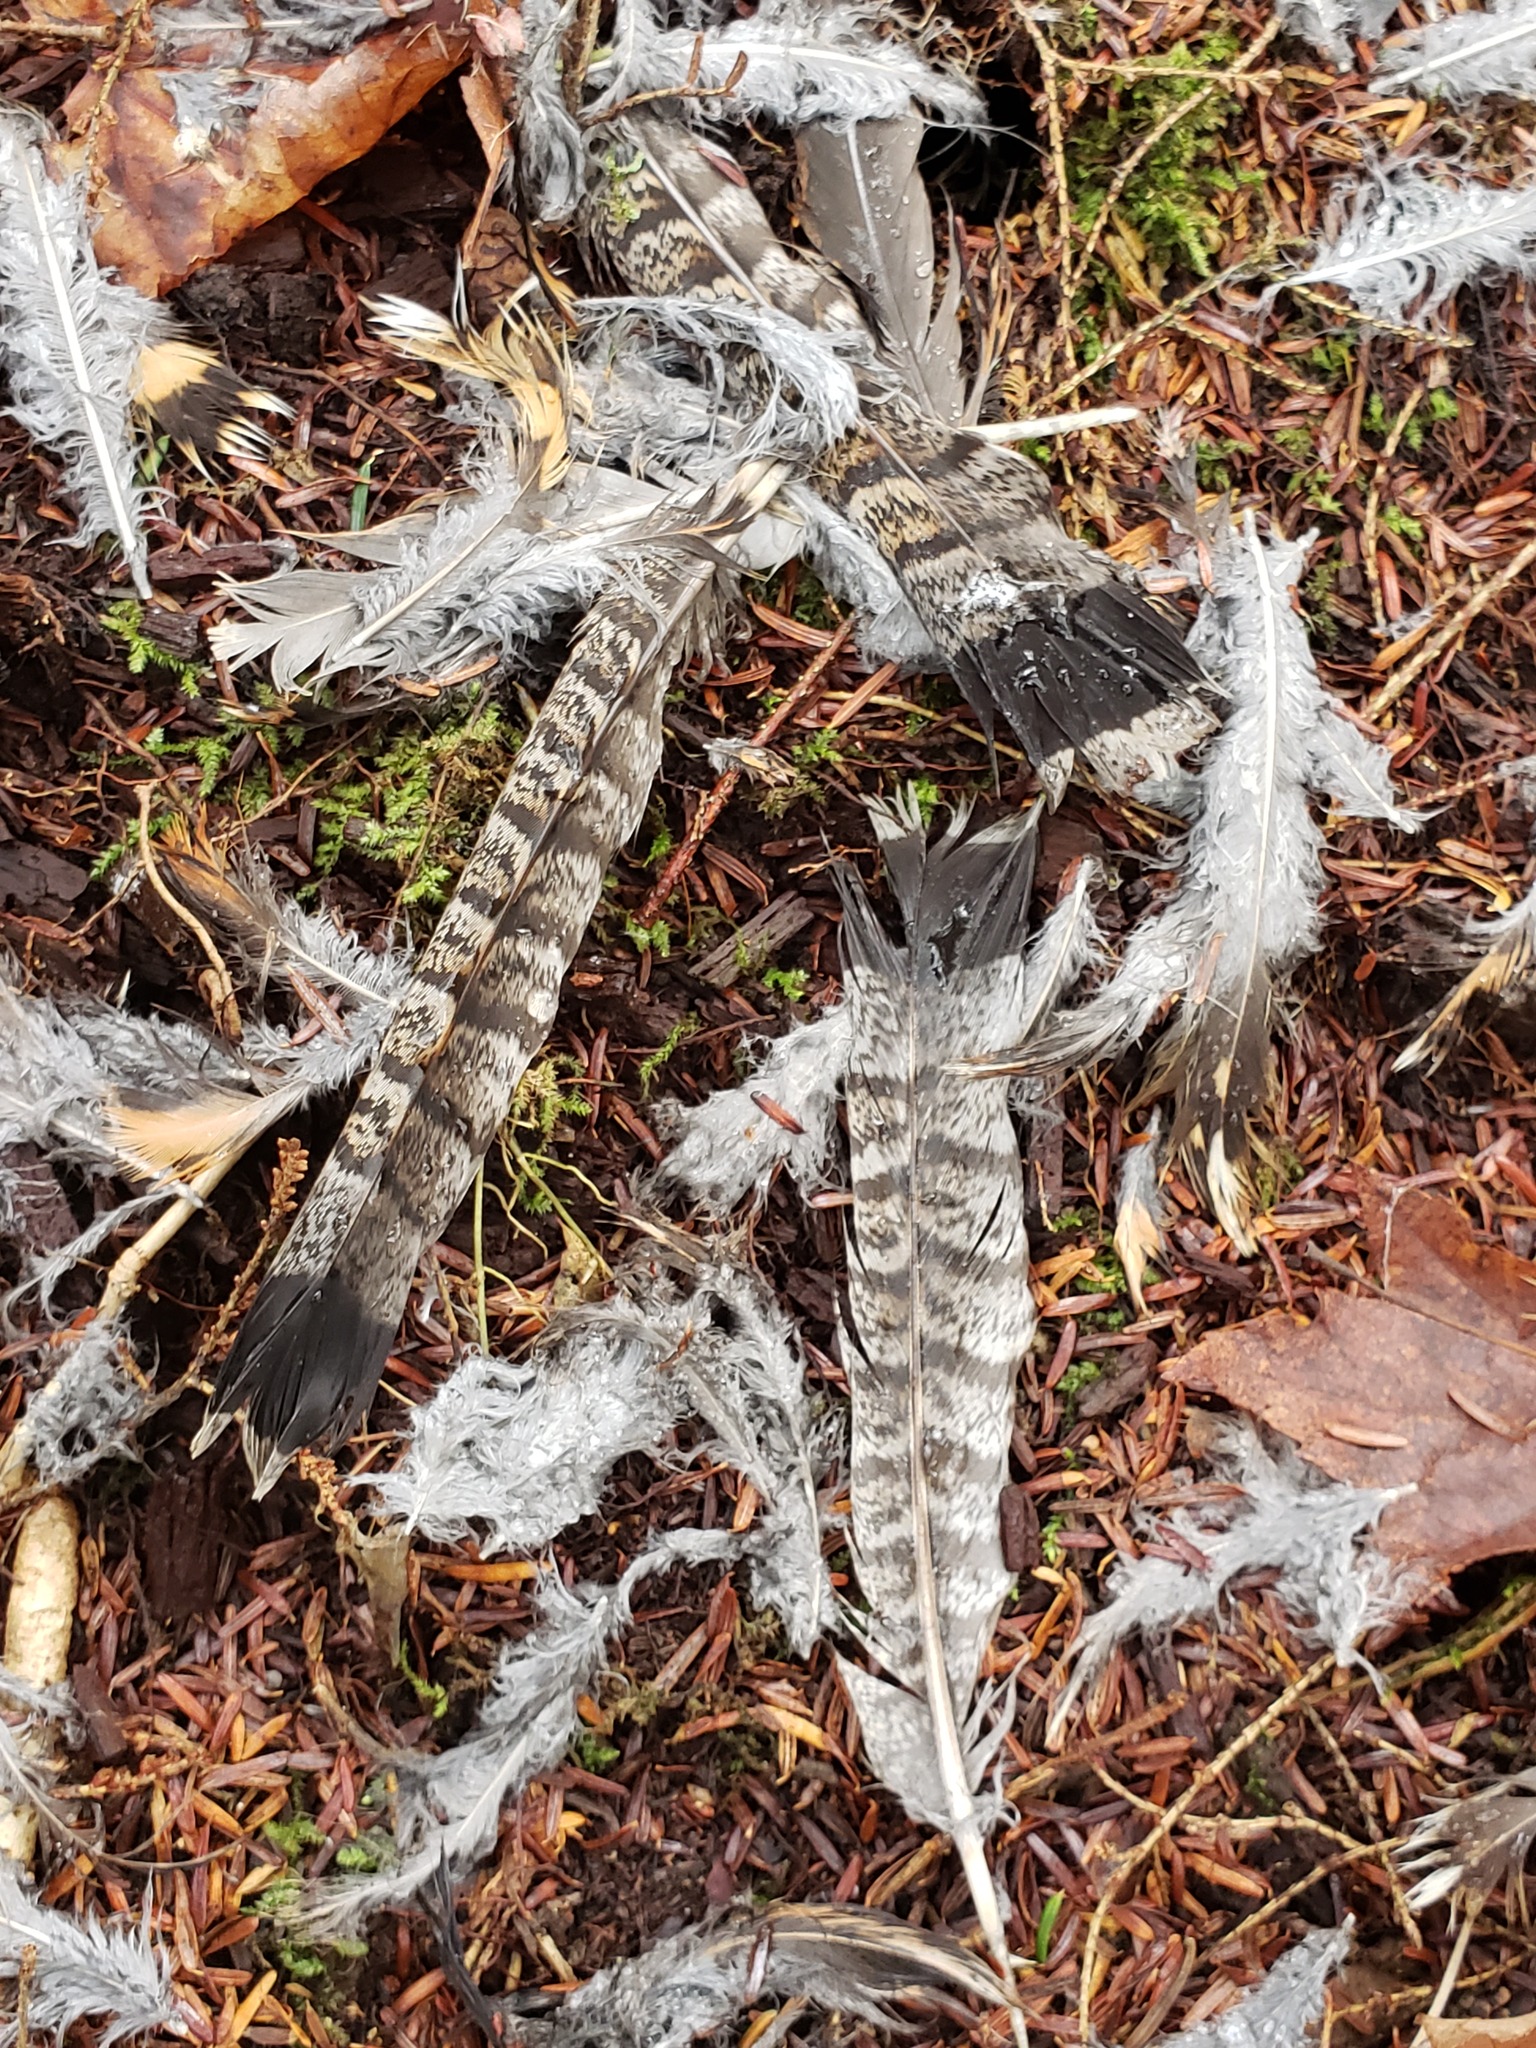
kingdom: Animalia
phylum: Chordata
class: Aves
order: Galliformes
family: Phasianidae
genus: Bonasa
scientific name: Bonasa umbellus
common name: Ruffed grouse
